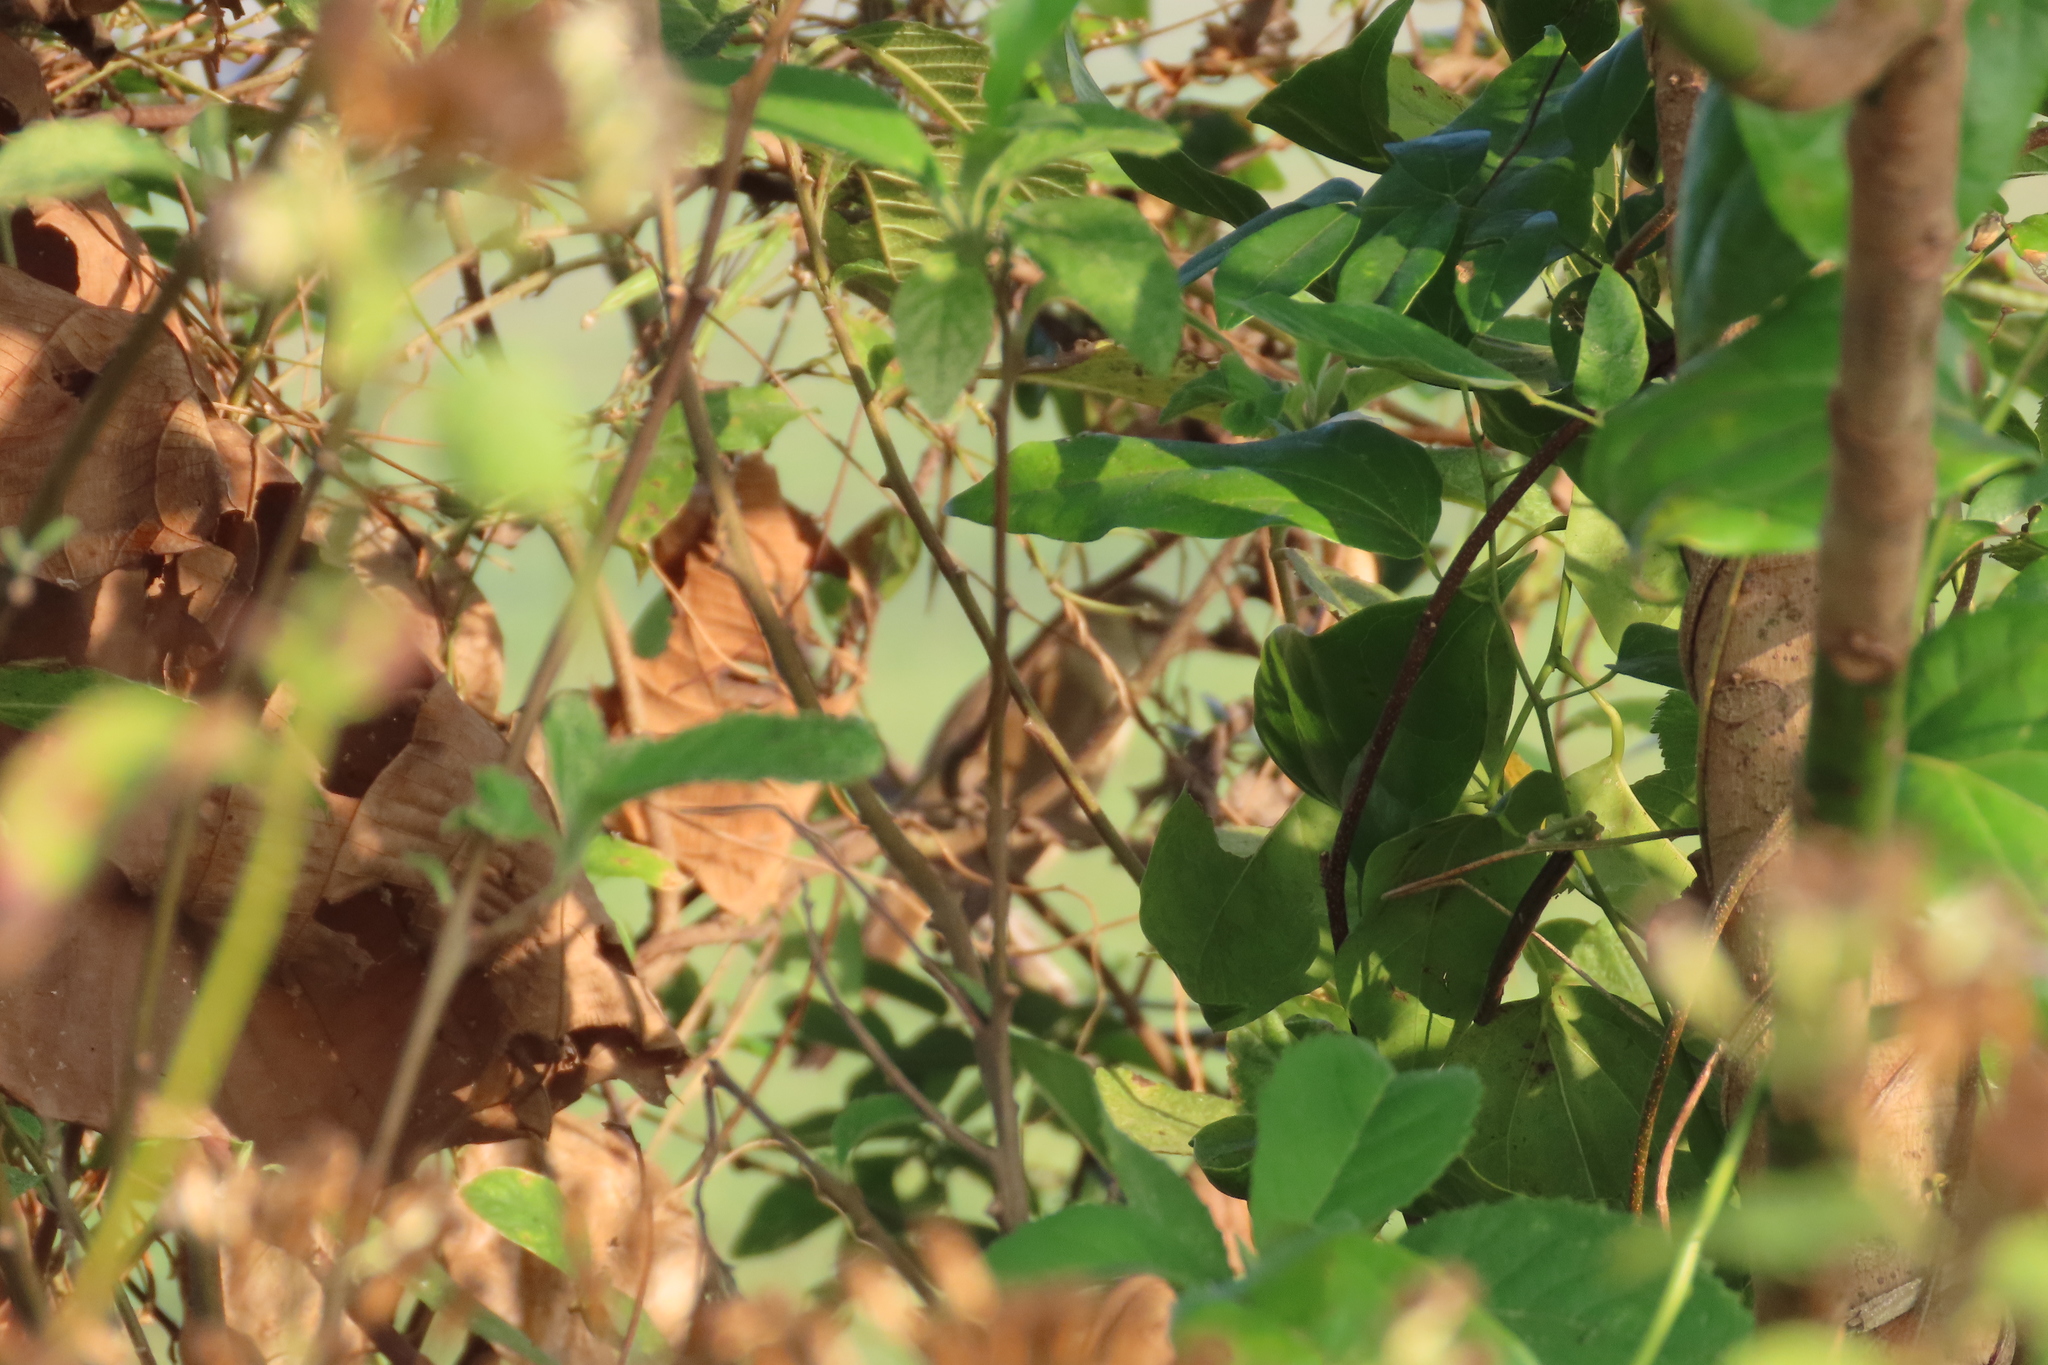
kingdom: Animalia
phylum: Chordata
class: Aves
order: Passeriformes
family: Acrocephalidae
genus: Acrocephalus
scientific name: Acrocephalus stentoreus
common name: Clamorous reed warbler
